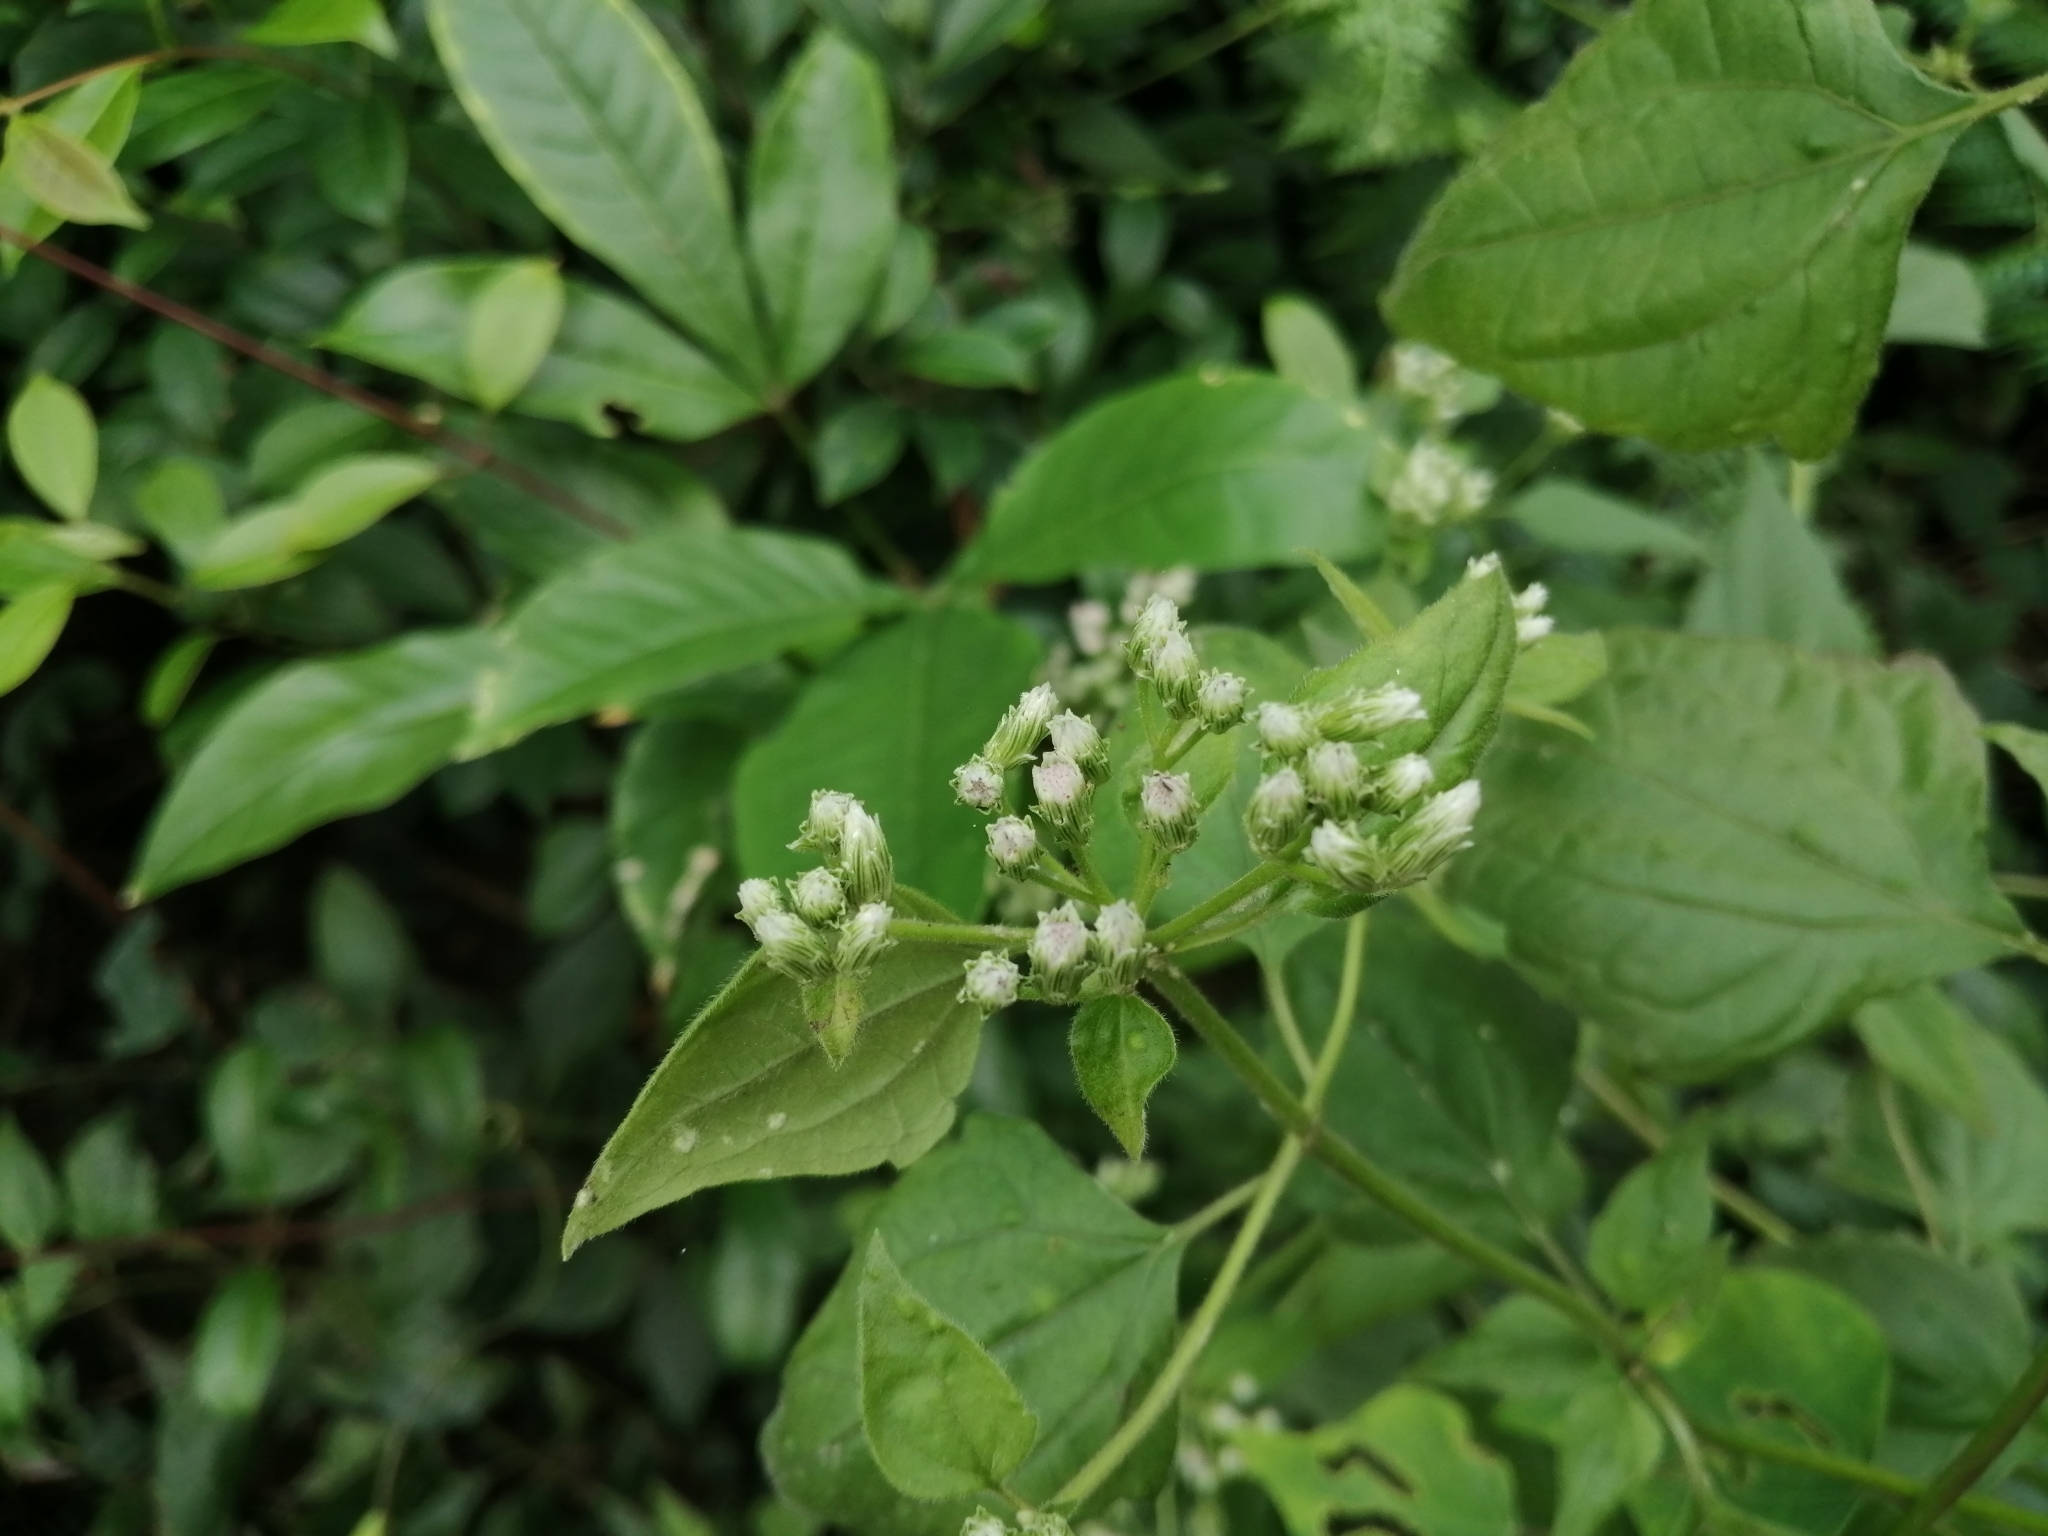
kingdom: Plantae
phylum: Tracheophyta
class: Magnoliopsida
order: Asterales
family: Asteraceae
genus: Chromolaena
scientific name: Chromolaena odorata
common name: Siamweed
